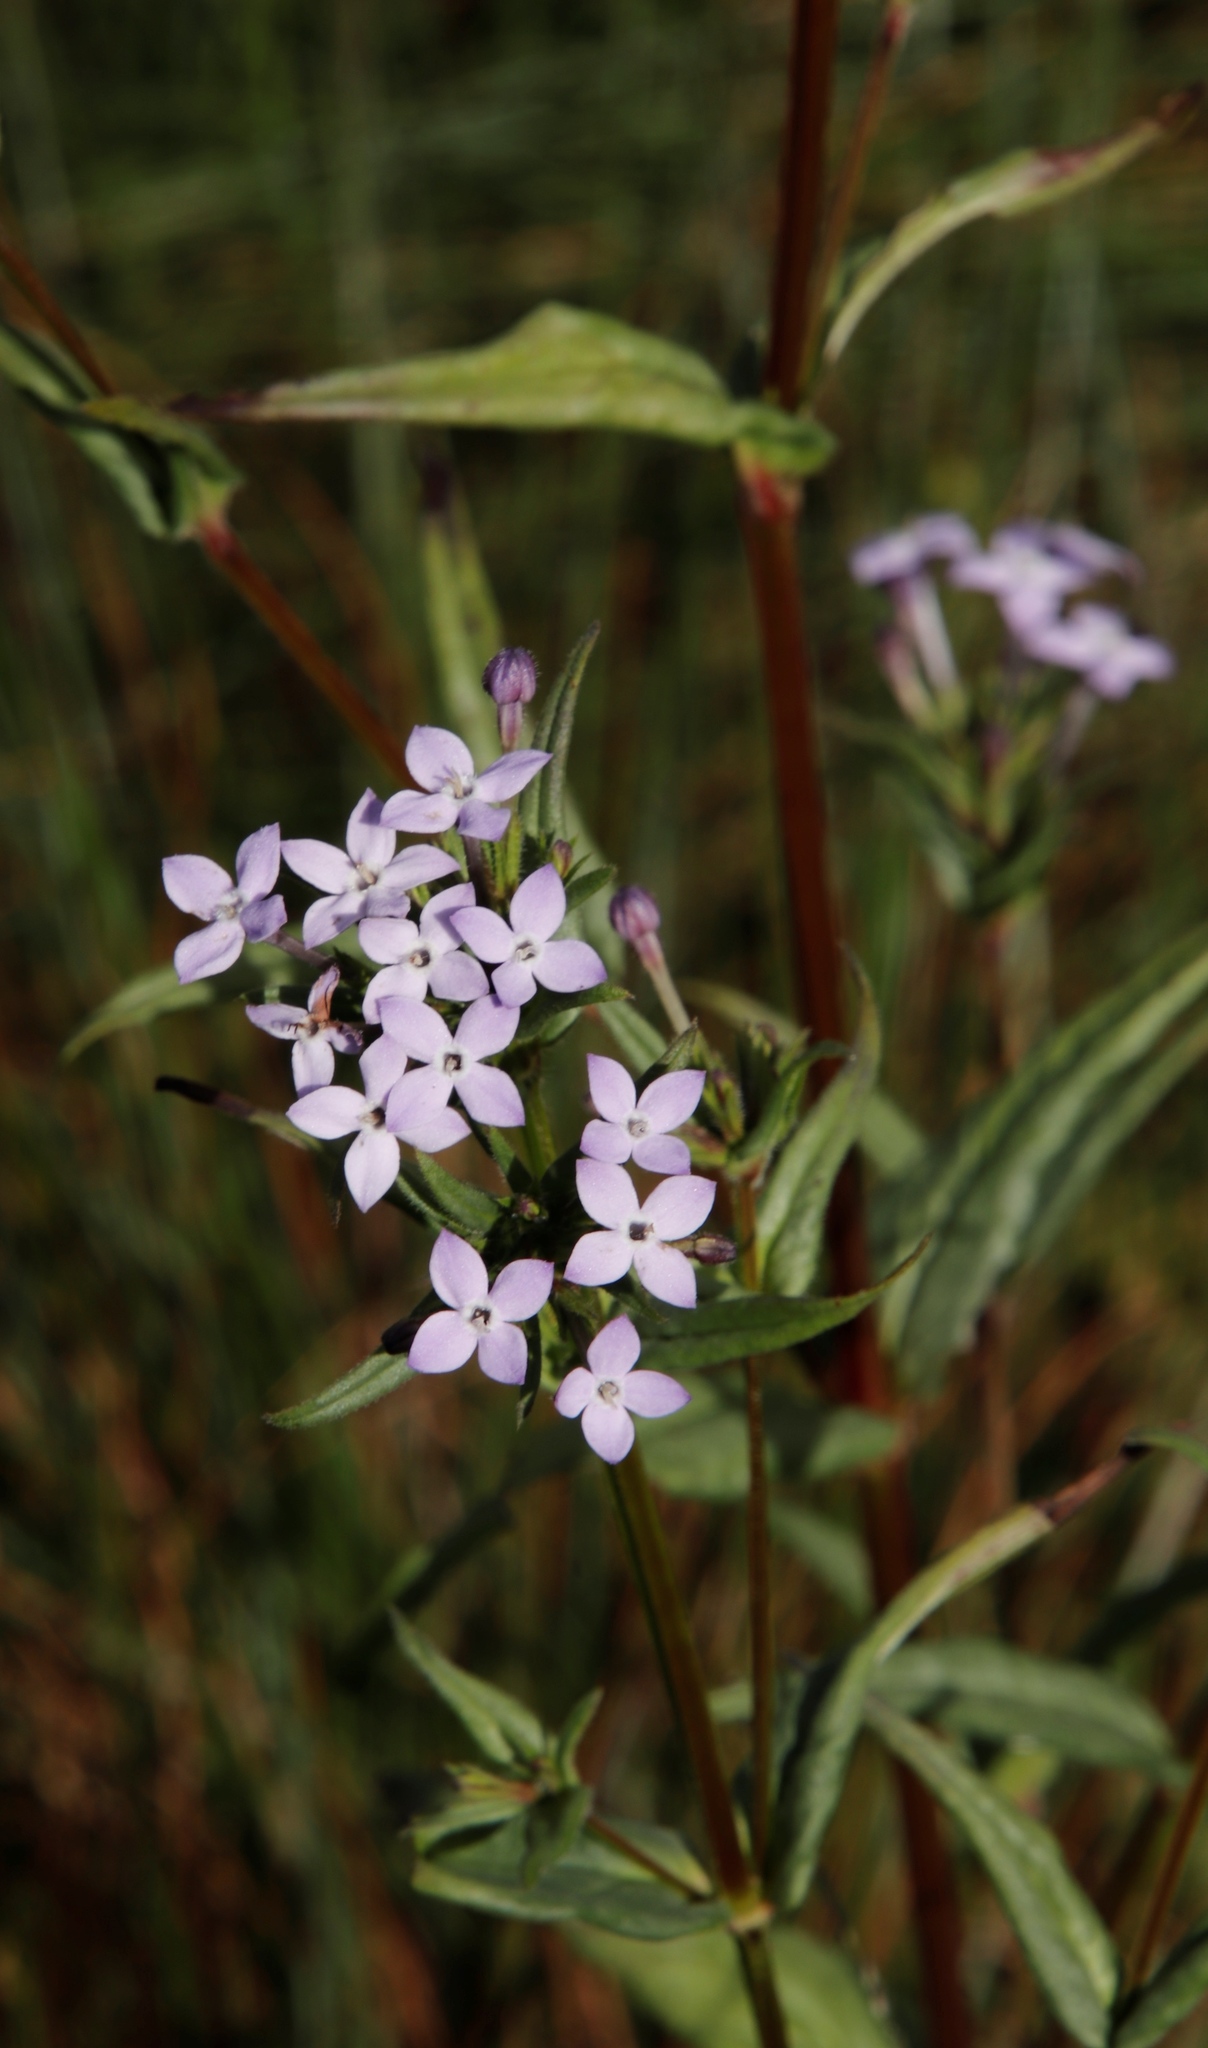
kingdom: Plantae
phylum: Tracheophyta
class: Magnoliopsida
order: Gentianales
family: Rubiaceae
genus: Conostomium
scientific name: Conostomium natalense
